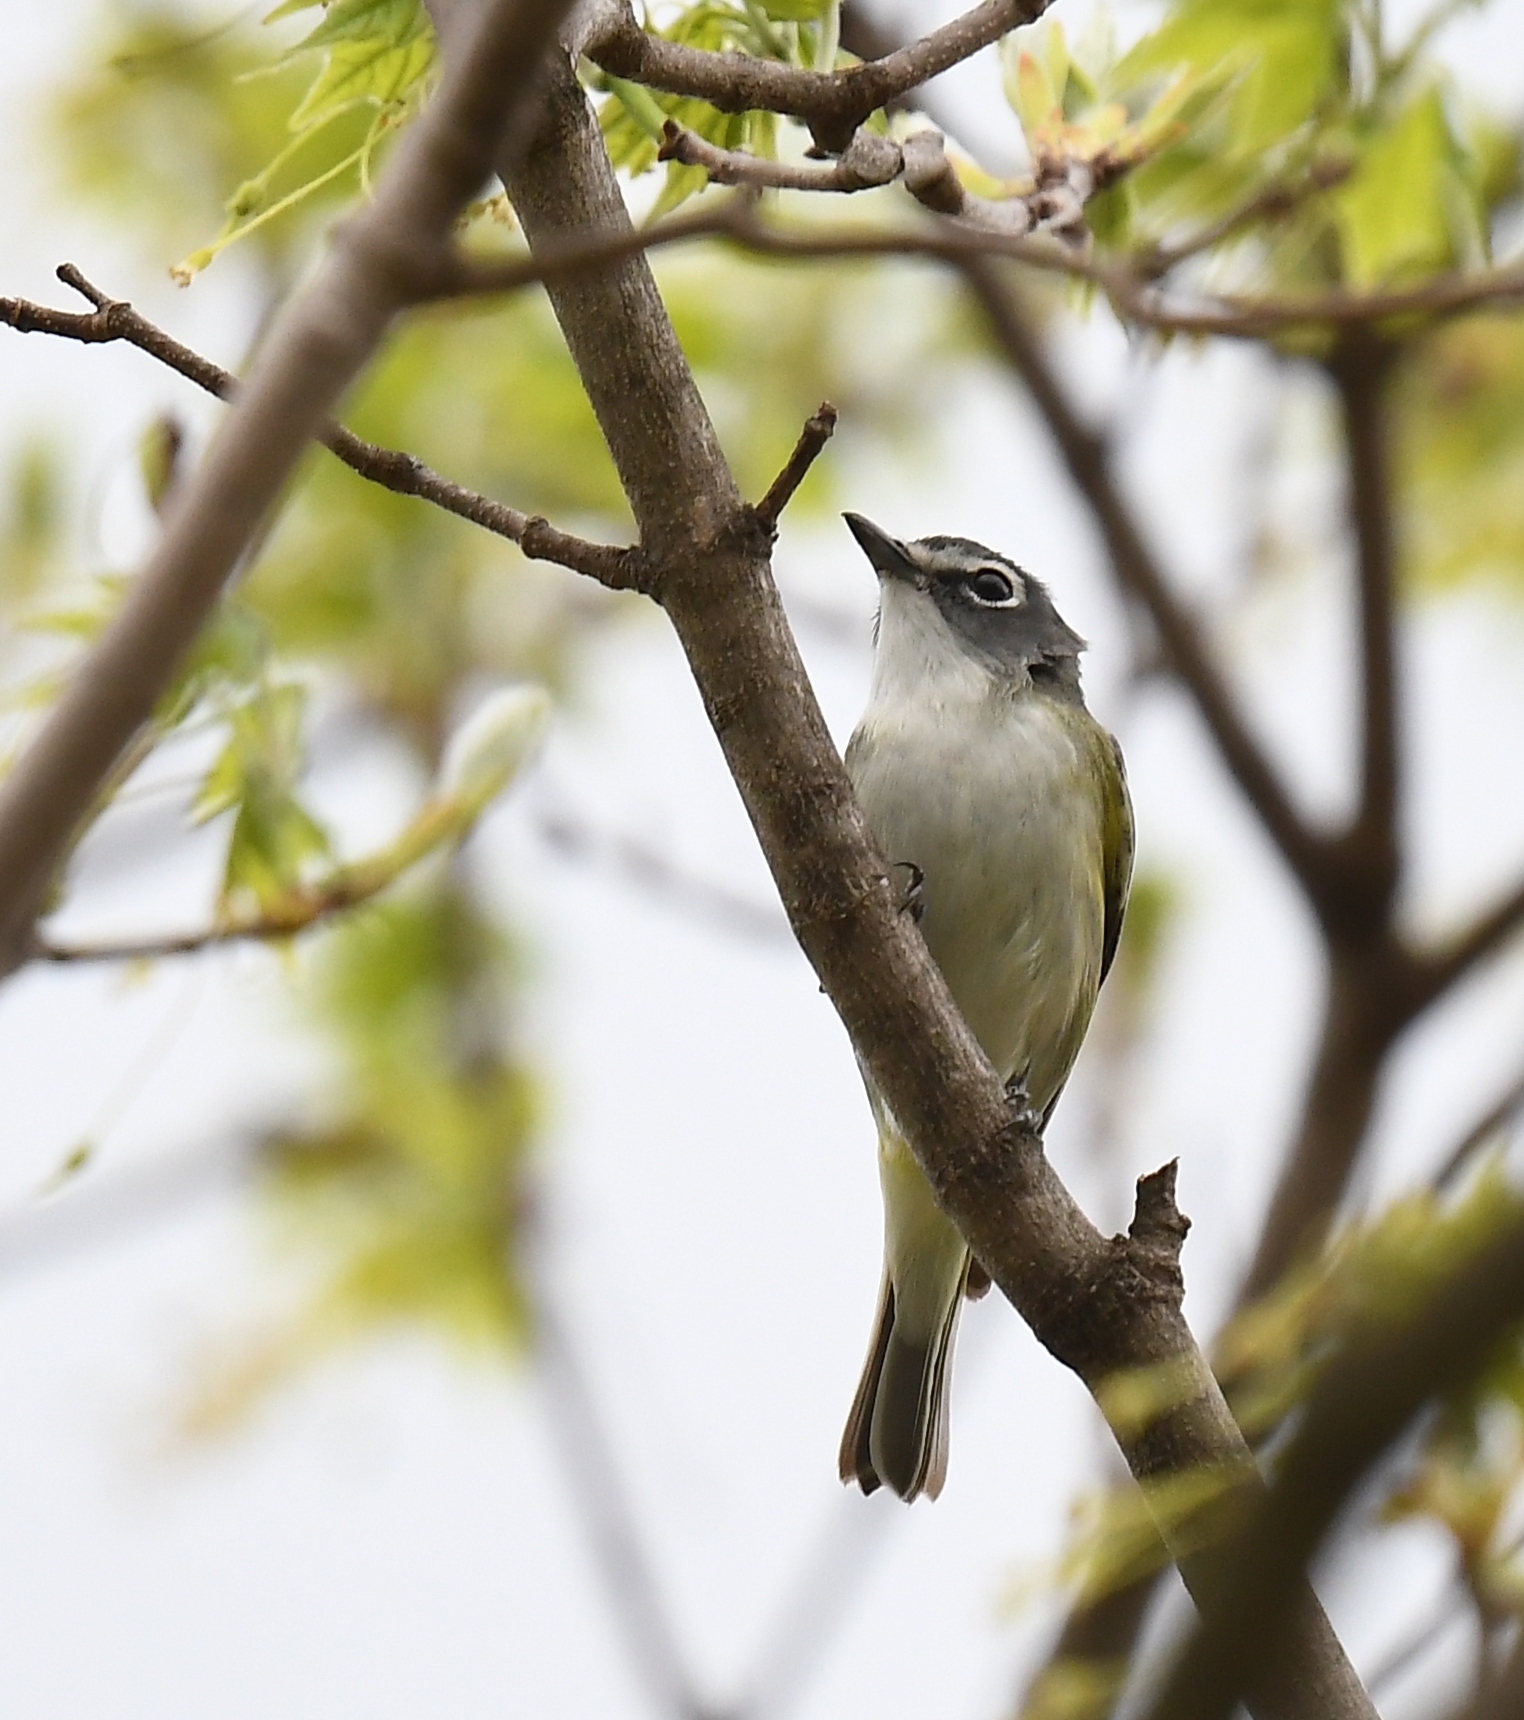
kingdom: Animalia
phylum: Chordata
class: Aves
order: Passeriformes
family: Vireonidae
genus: Vireo
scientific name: Vireo solitarius
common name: Blue-headed vireo
